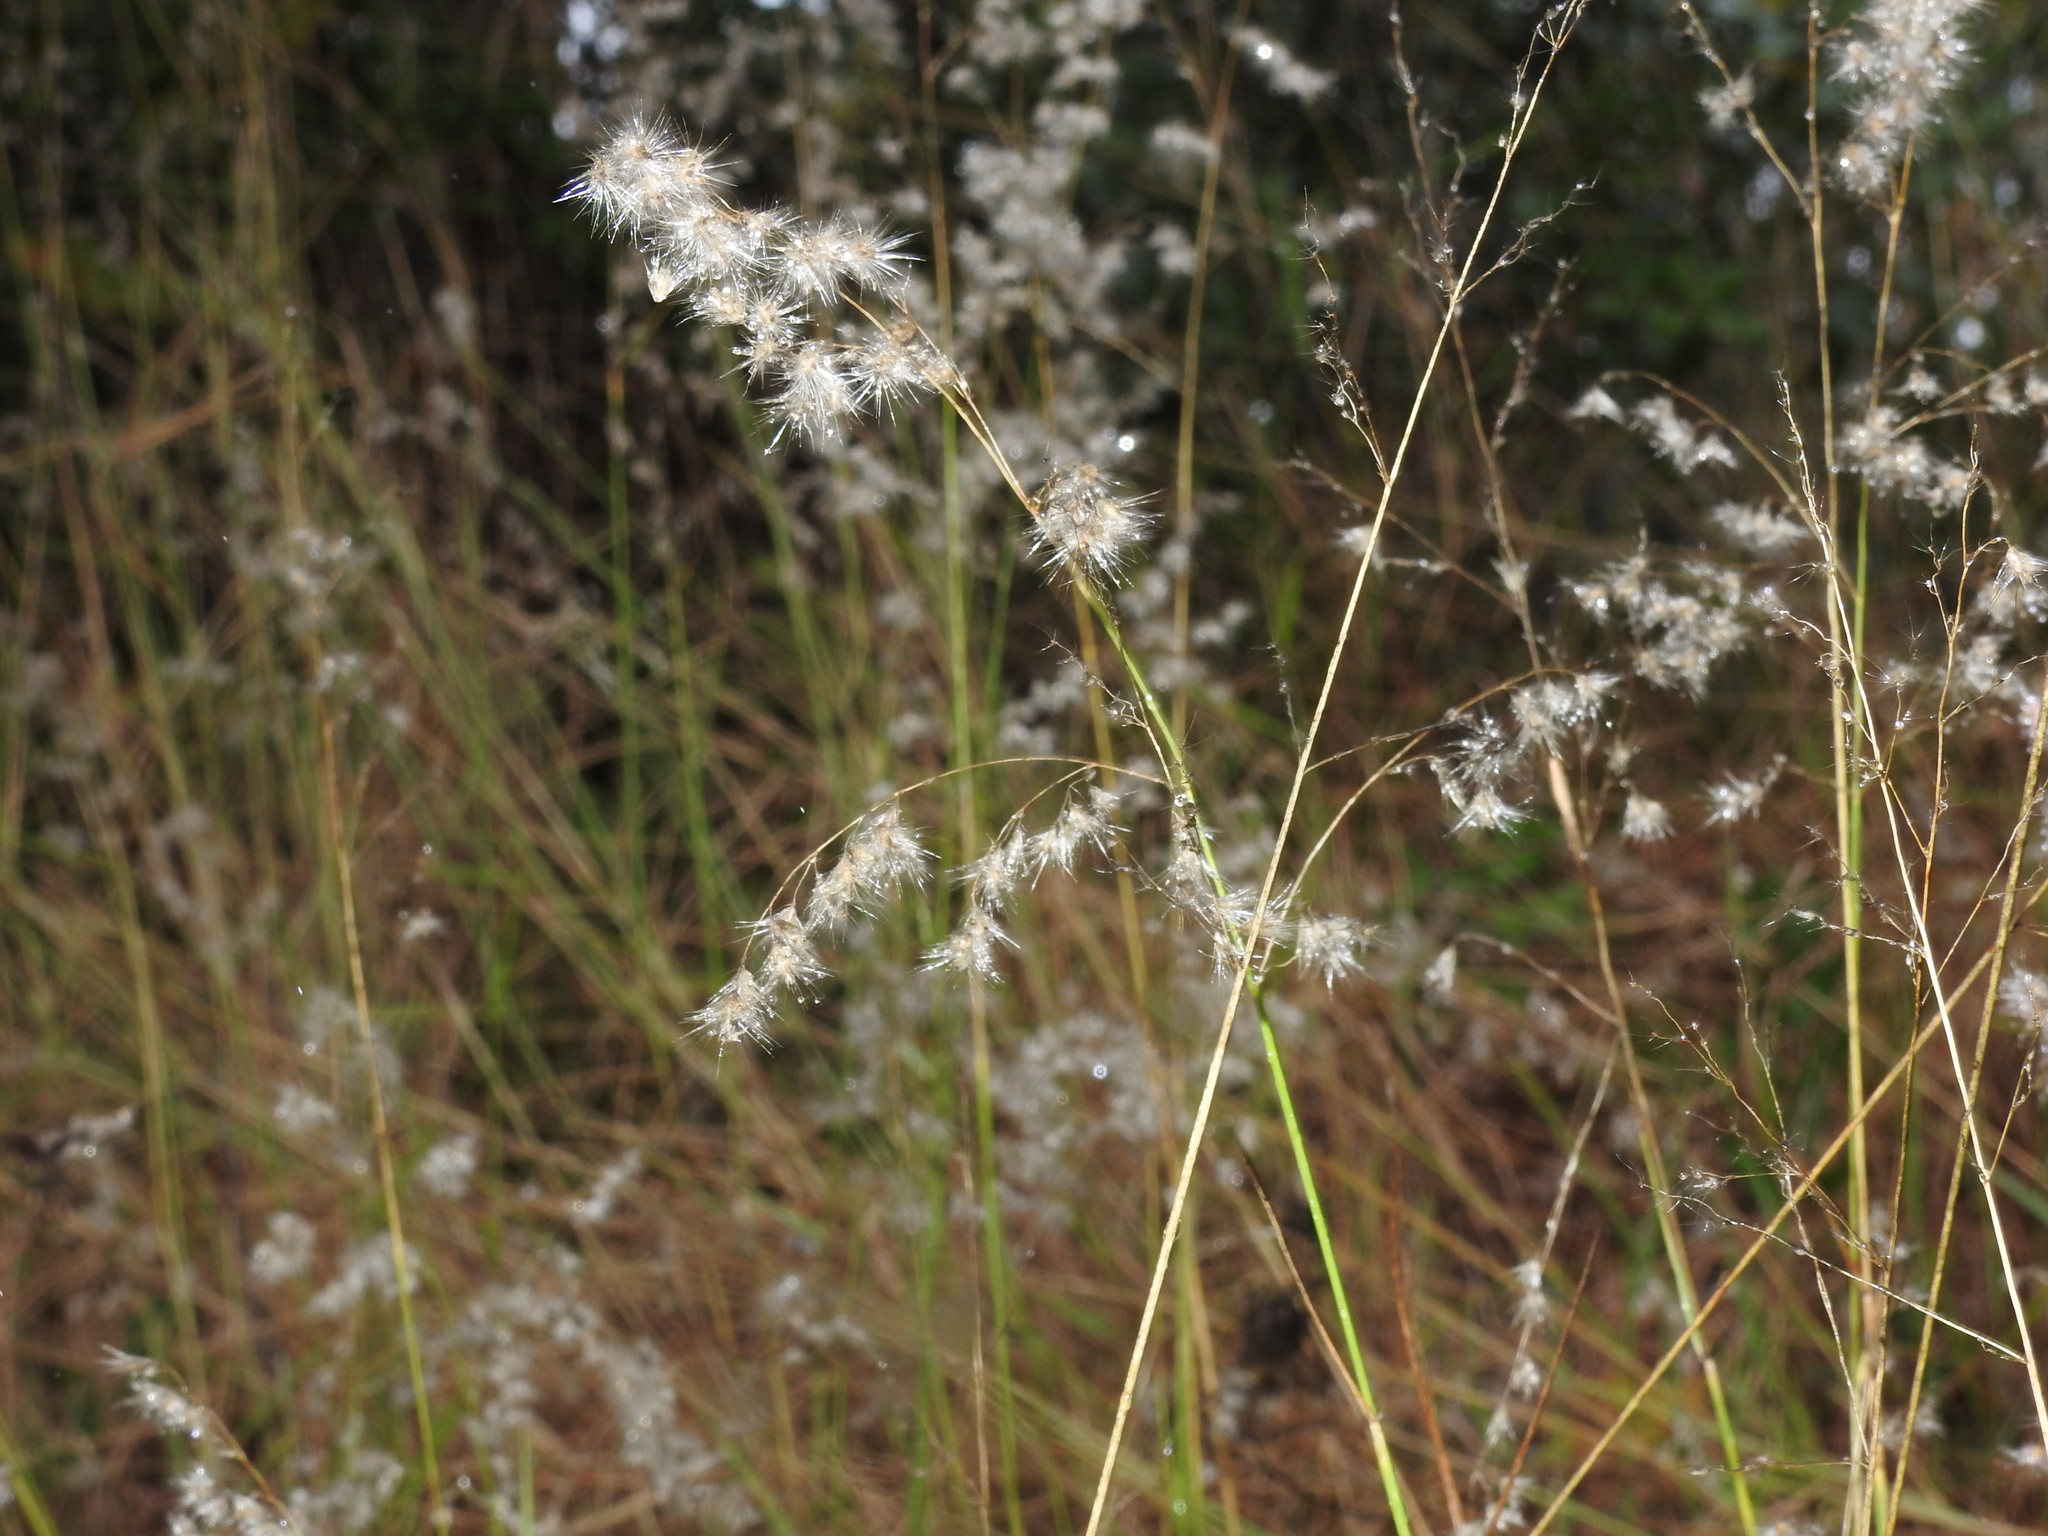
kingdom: Plantae
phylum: Tracheophyta
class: Liliopsida
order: Poales
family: Poaceae
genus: Melinis
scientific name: Melinis repens
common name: Rose natal grass
